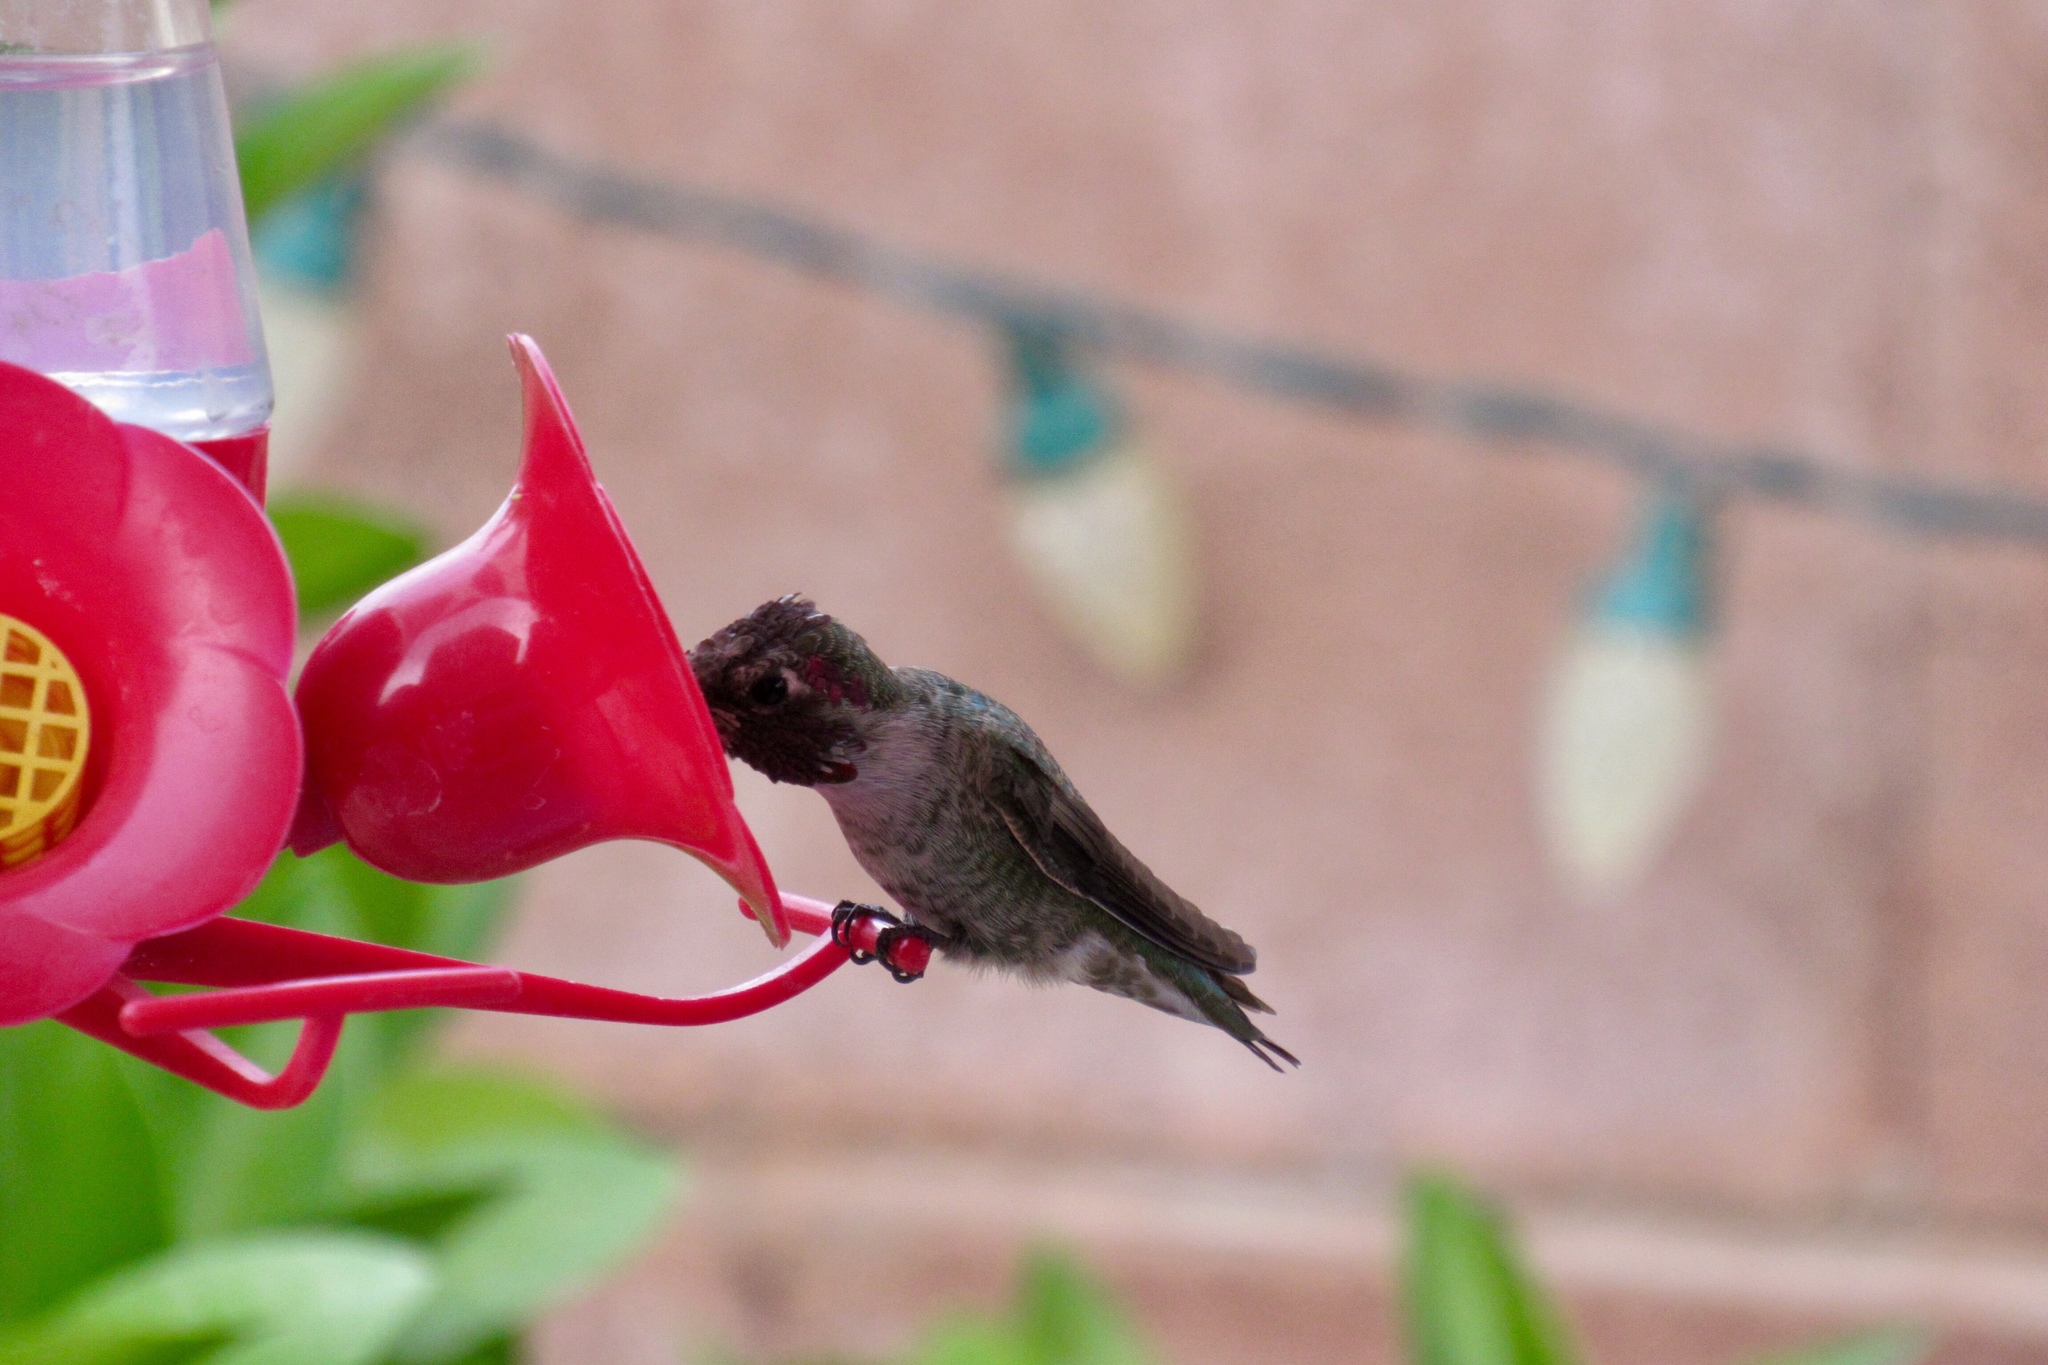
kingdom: Animalia
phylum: Chordata
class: Aves
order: Apodiformes
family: Trochilidae
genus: Calypte
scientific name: Calypte anna
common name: Anna's hummingbird
